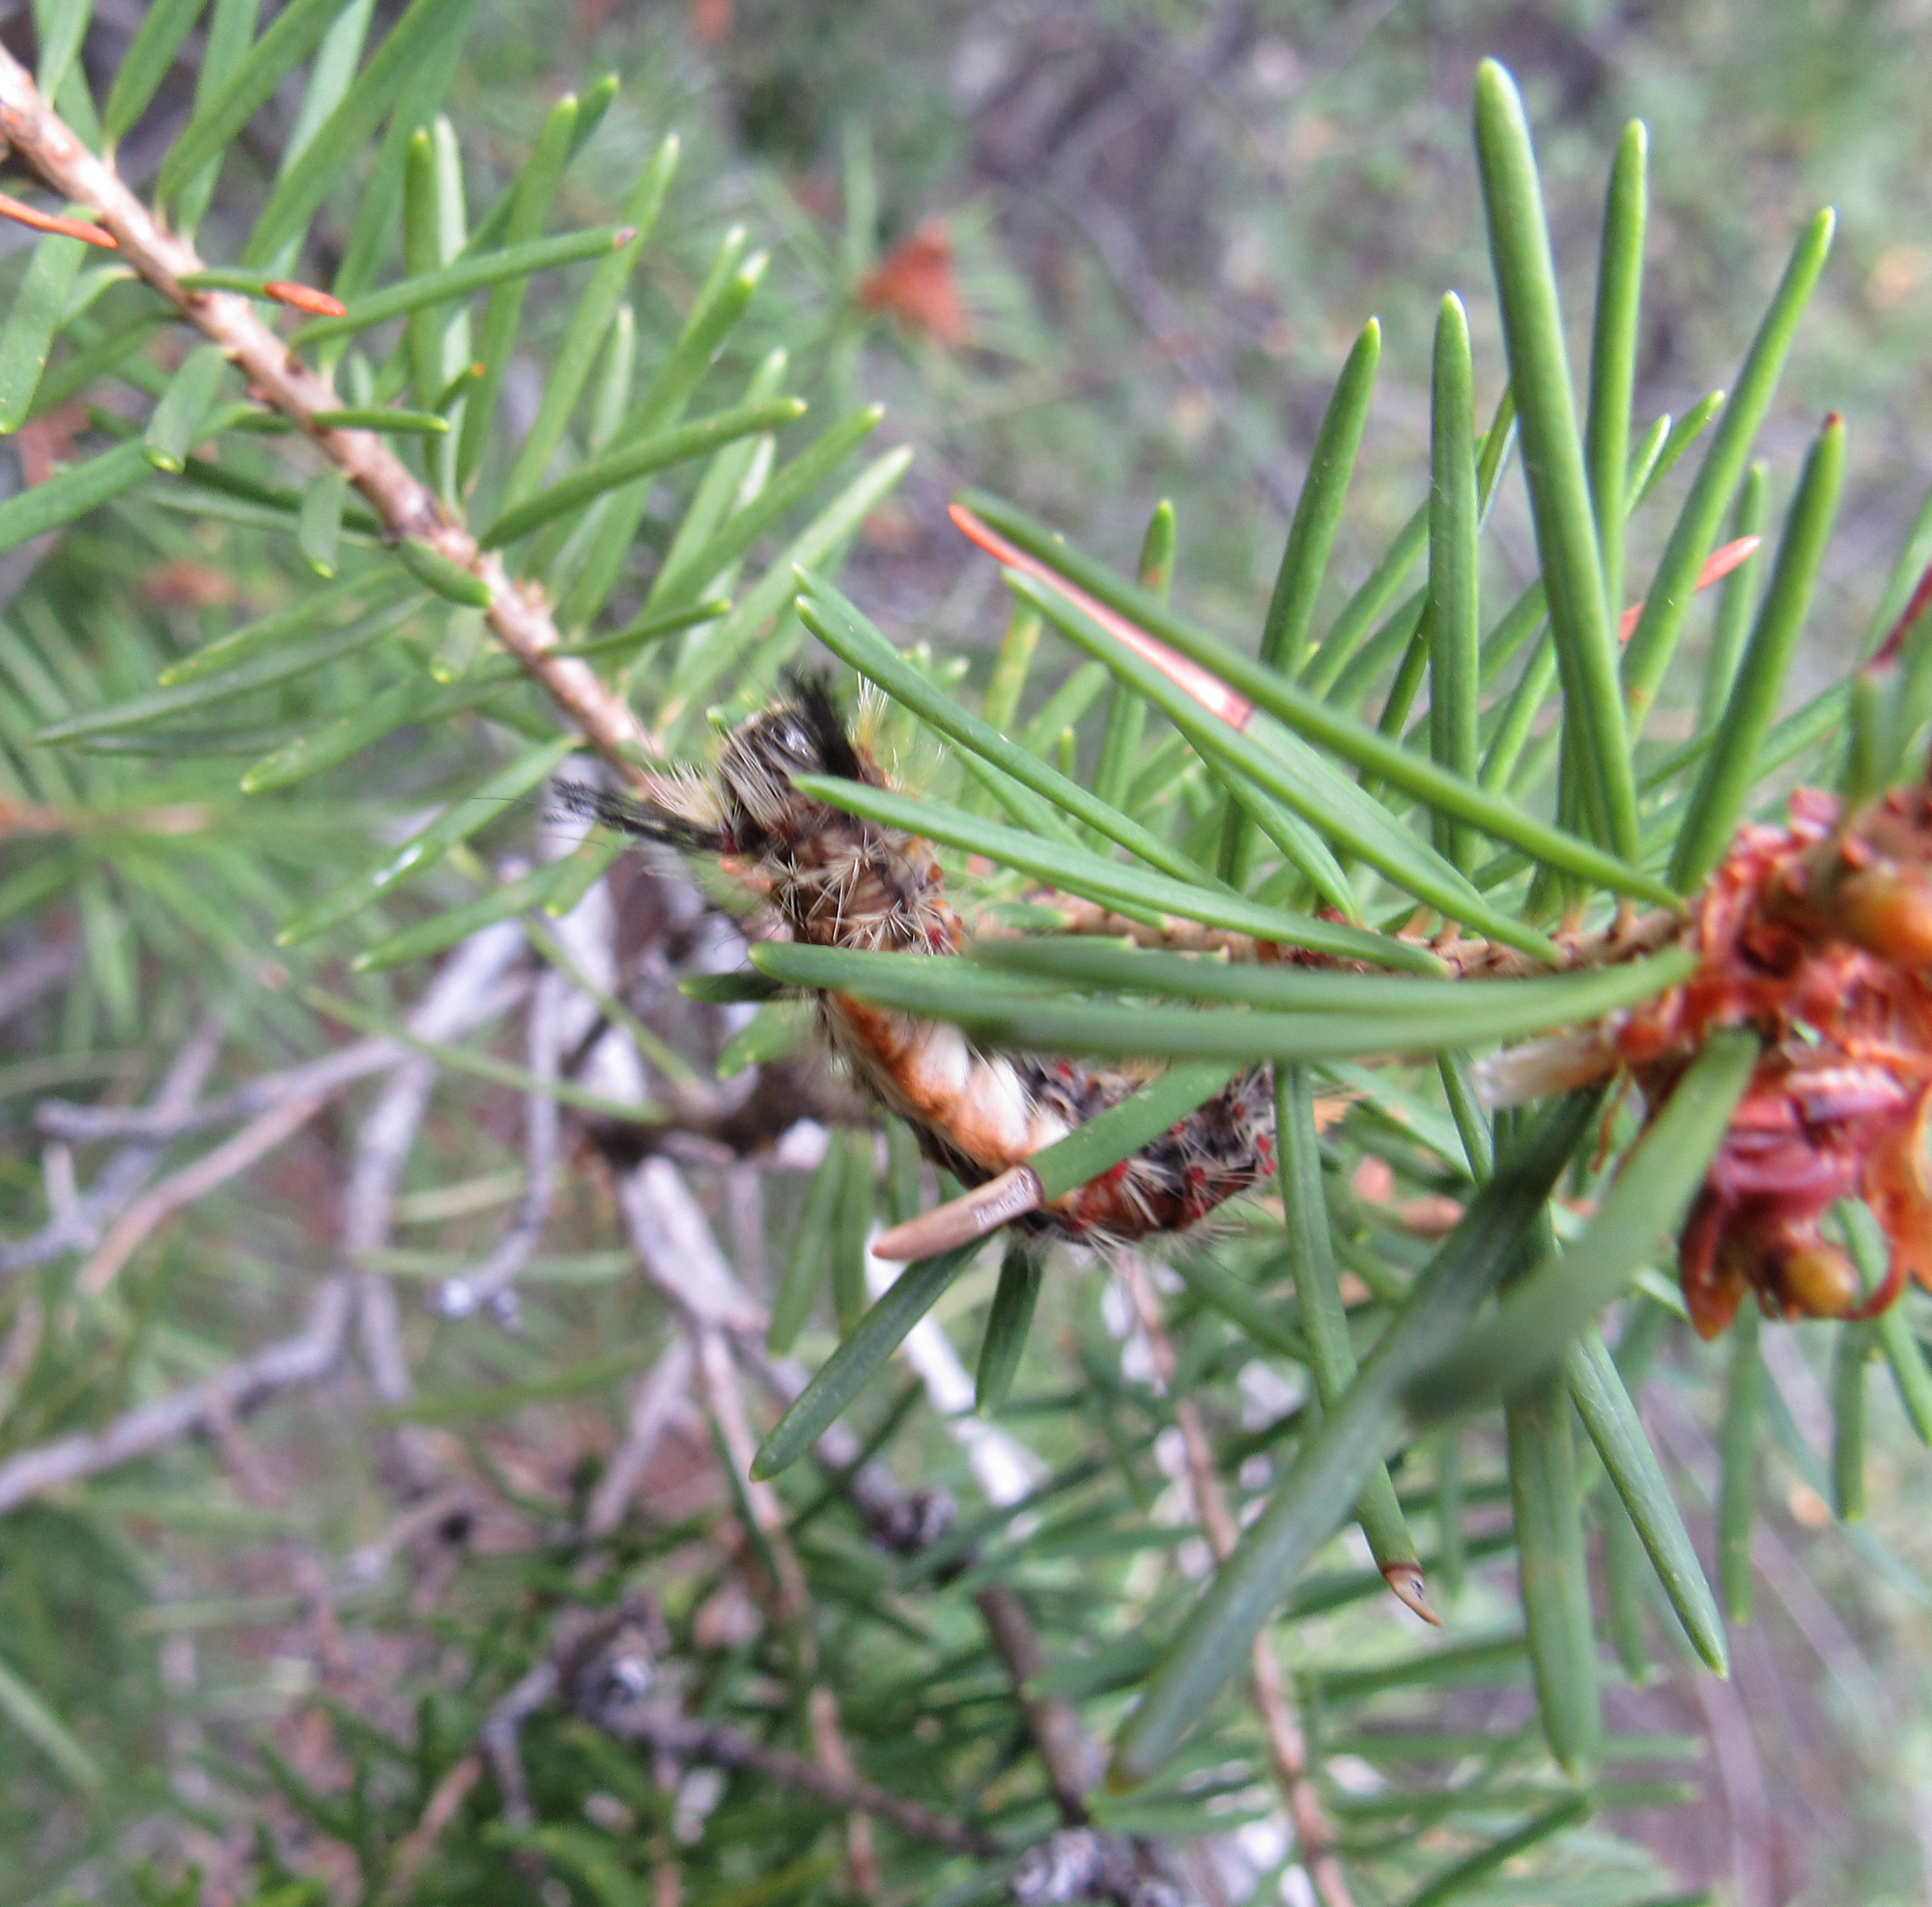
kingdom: Animalia
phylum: Arthropoda
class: Insecta
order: Lepidoptera
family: Erebidae
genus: Orgyia
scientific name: Orgyia pseudotsugata
